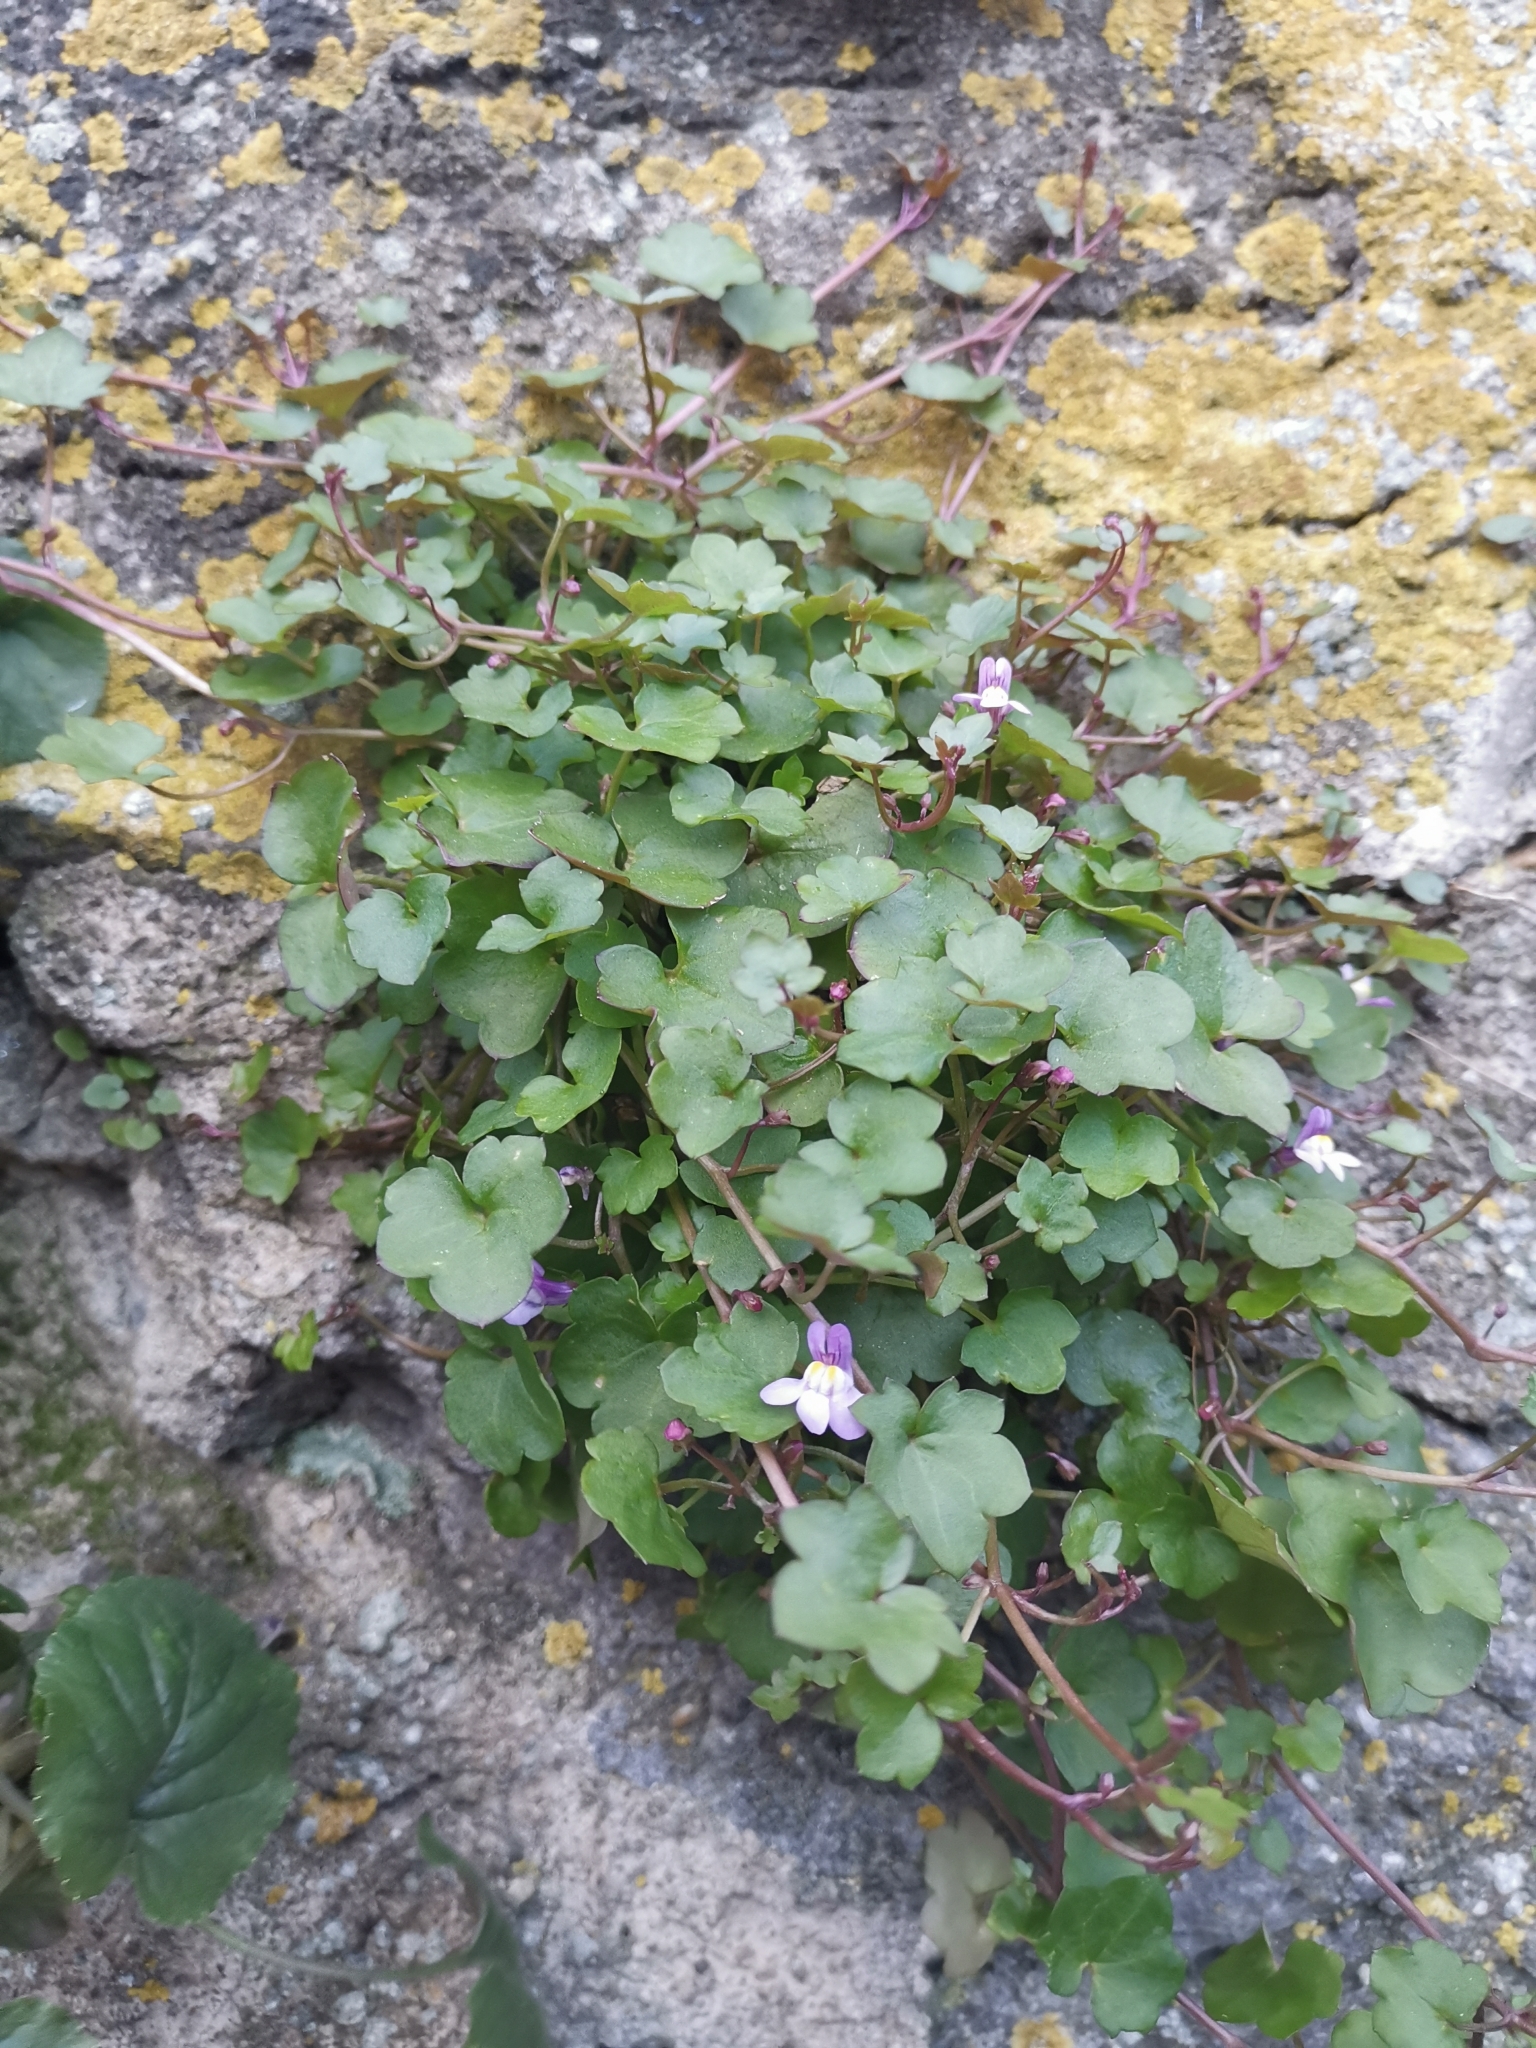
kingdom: Plantae
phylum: Tracheophyta
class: Magnoliopsida
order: Lamiales
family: Plantaginaceae
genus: Cymbalaria
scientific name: Cymbalaria muralis
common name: Ivy-leaved toadflax
